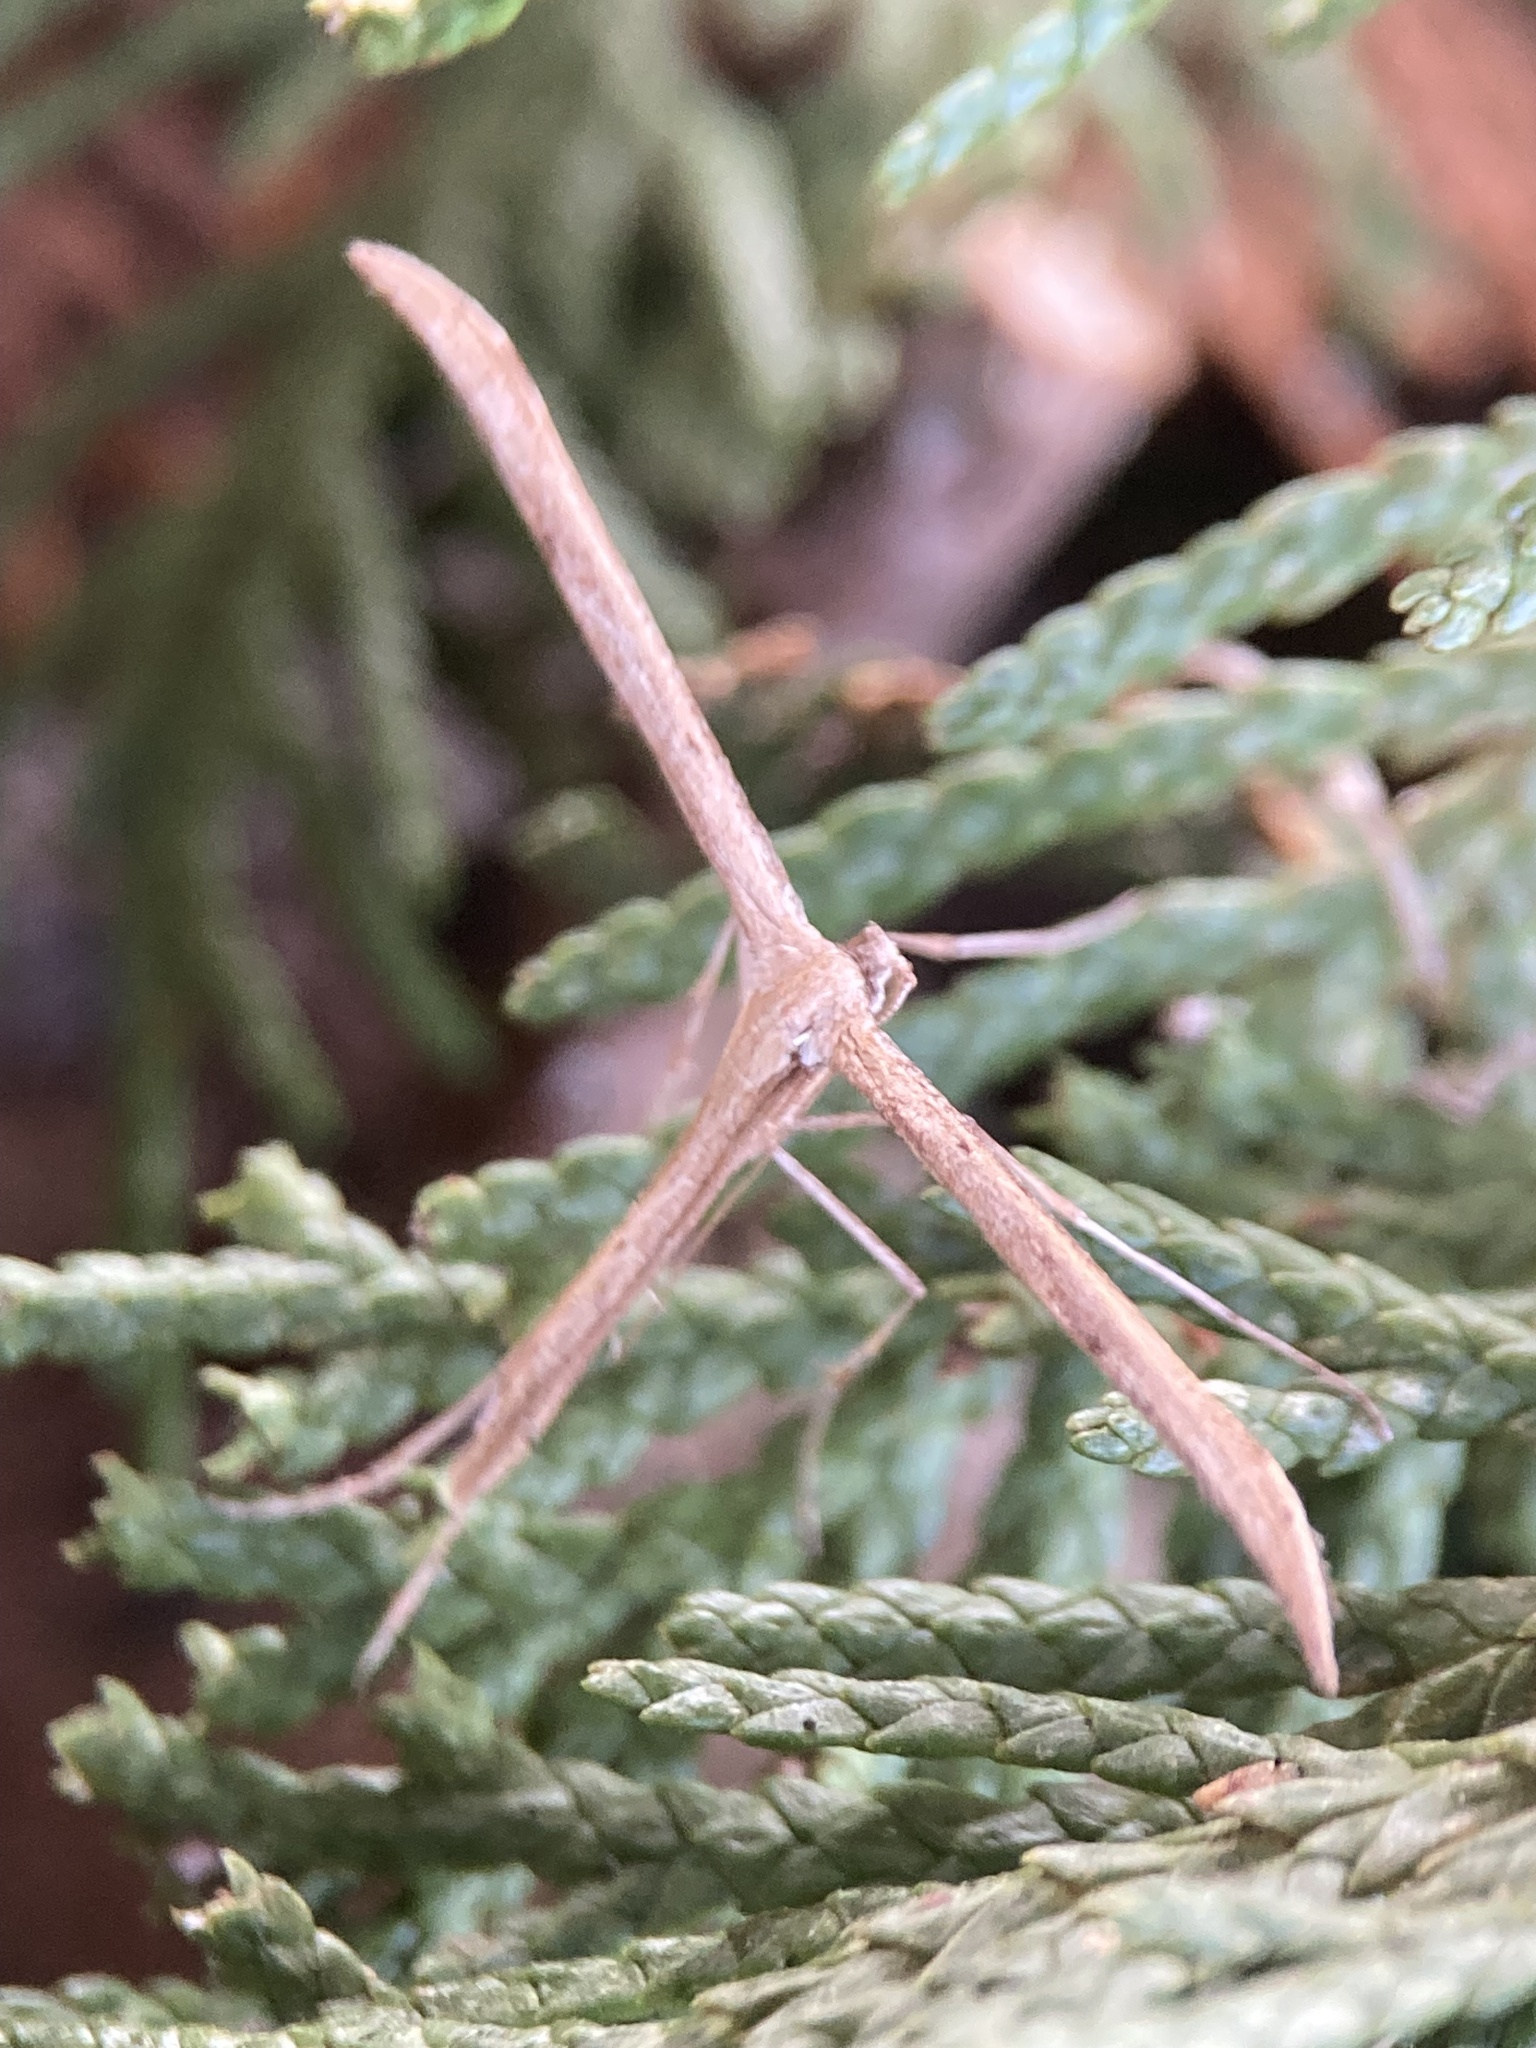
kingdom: Animalia
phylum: Arthropoda
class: Insecta
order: Lepidoptera
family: Pterophoridae
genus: Emmelina
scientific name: Emmelina monodactyla
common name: Common plume
